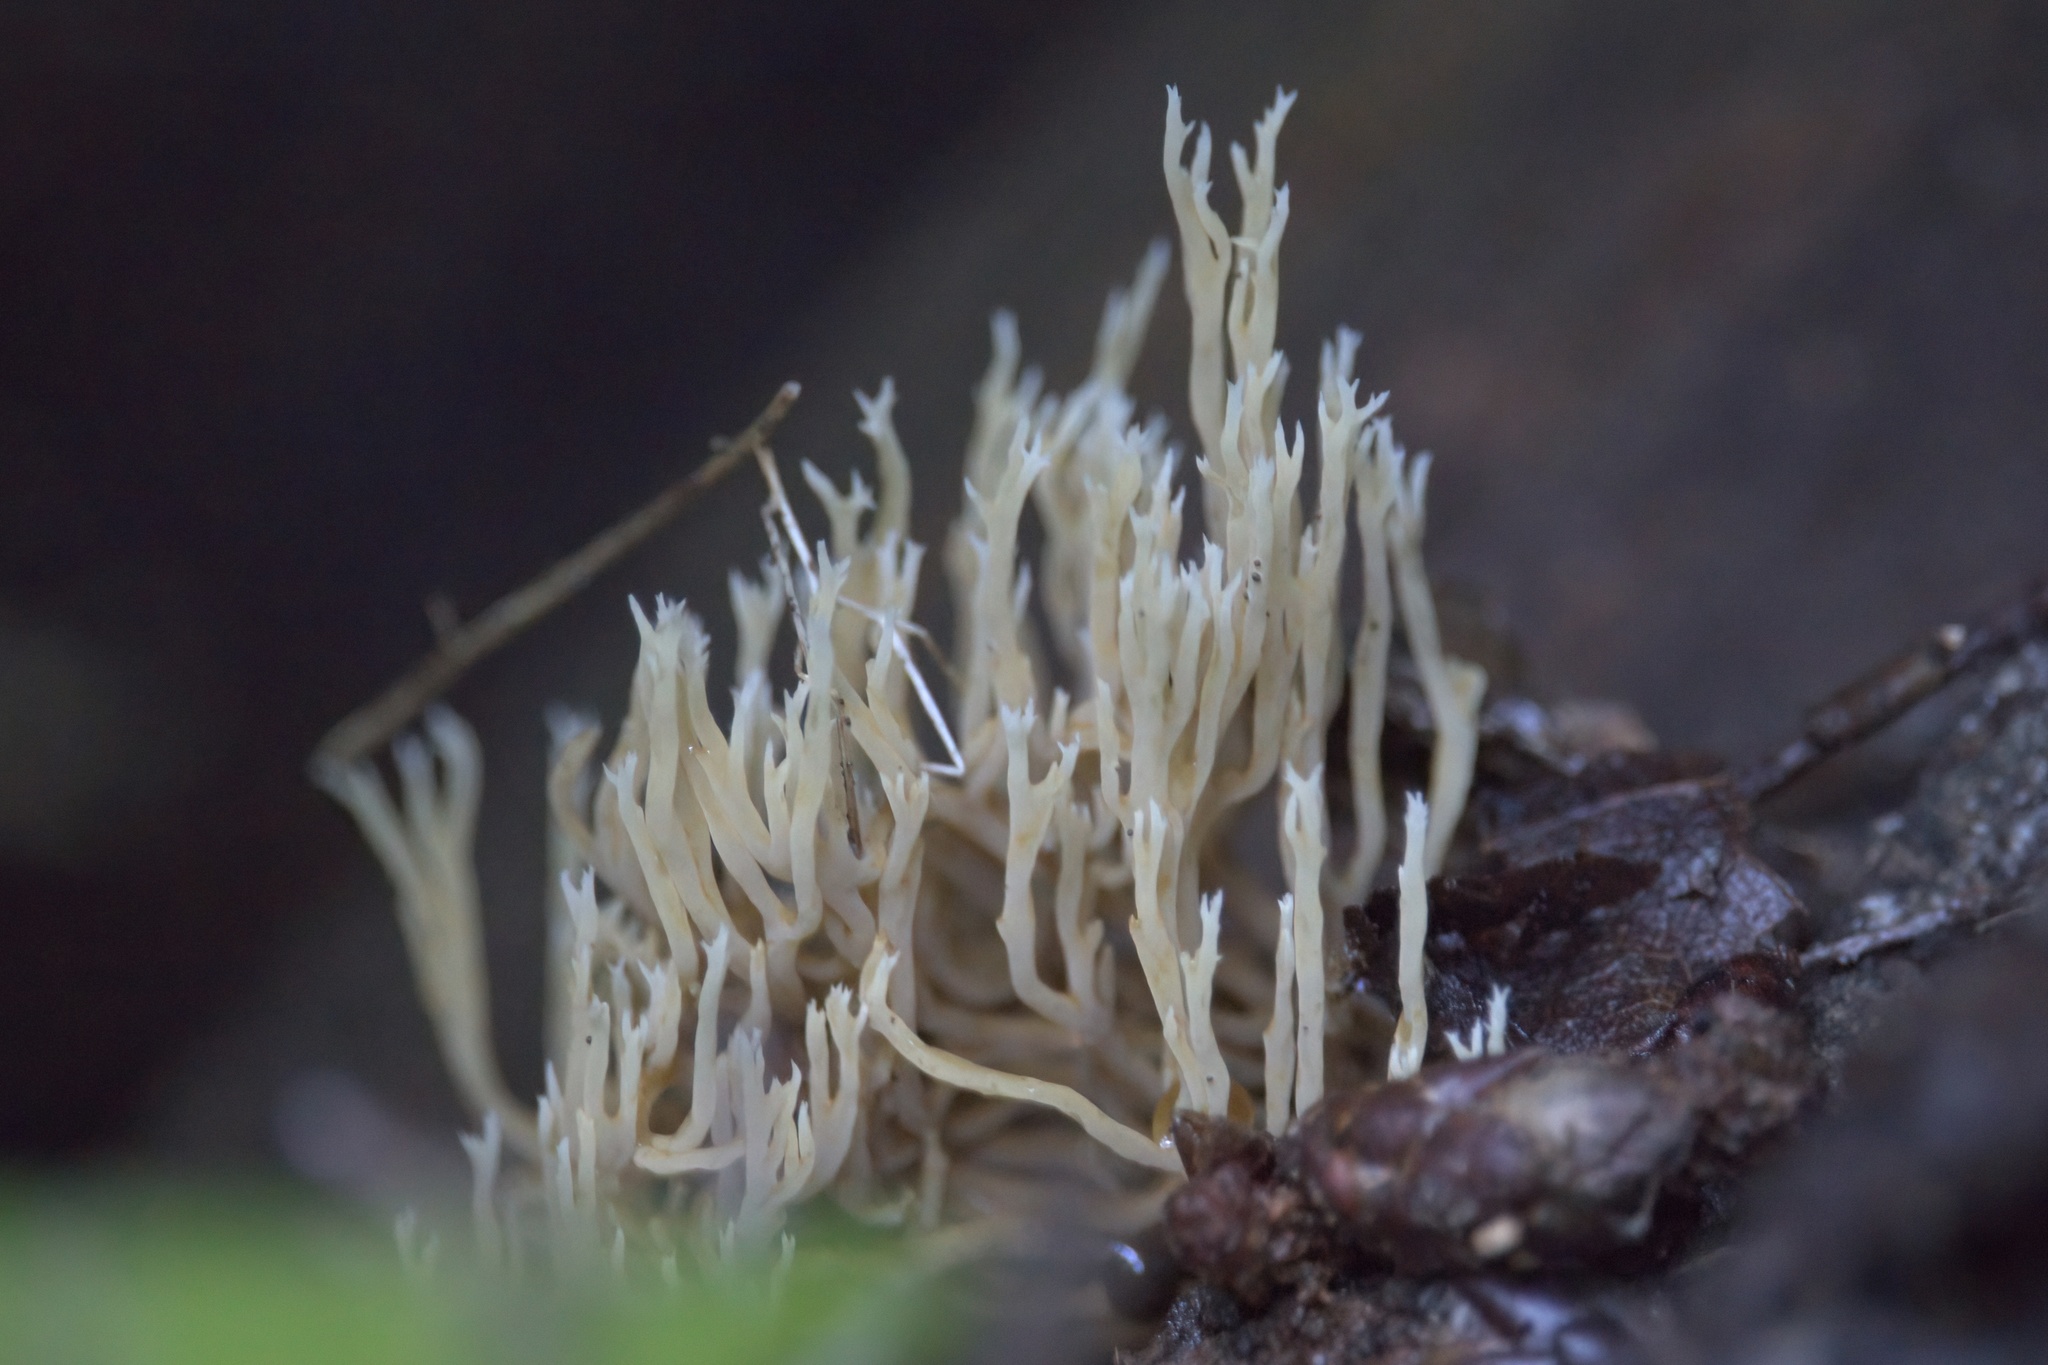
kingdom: Fungi
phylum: Basidiomycota
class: Agaricomycetes
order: Cantharellales
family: Hydnaceae
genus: Clavulina
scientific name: Clavulina coralloides
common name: Crested coral
